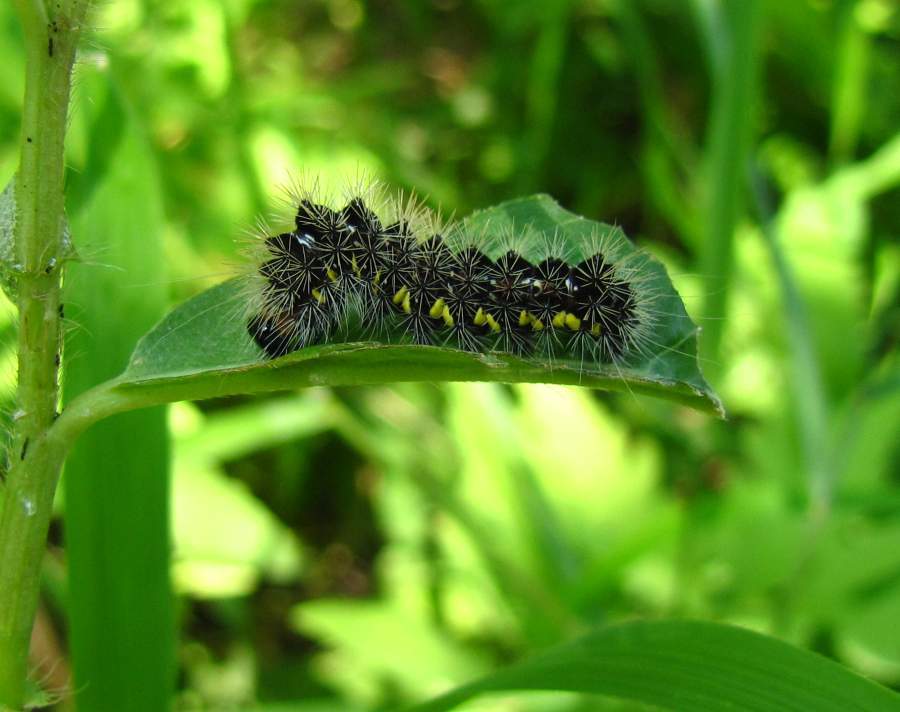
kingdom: Animalia
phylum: Arthropoda
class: Insecta
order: Lepidoptera
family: Noctuidae
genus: Acronicta
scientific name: Acronicta oblinita
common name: Smeared dagger
